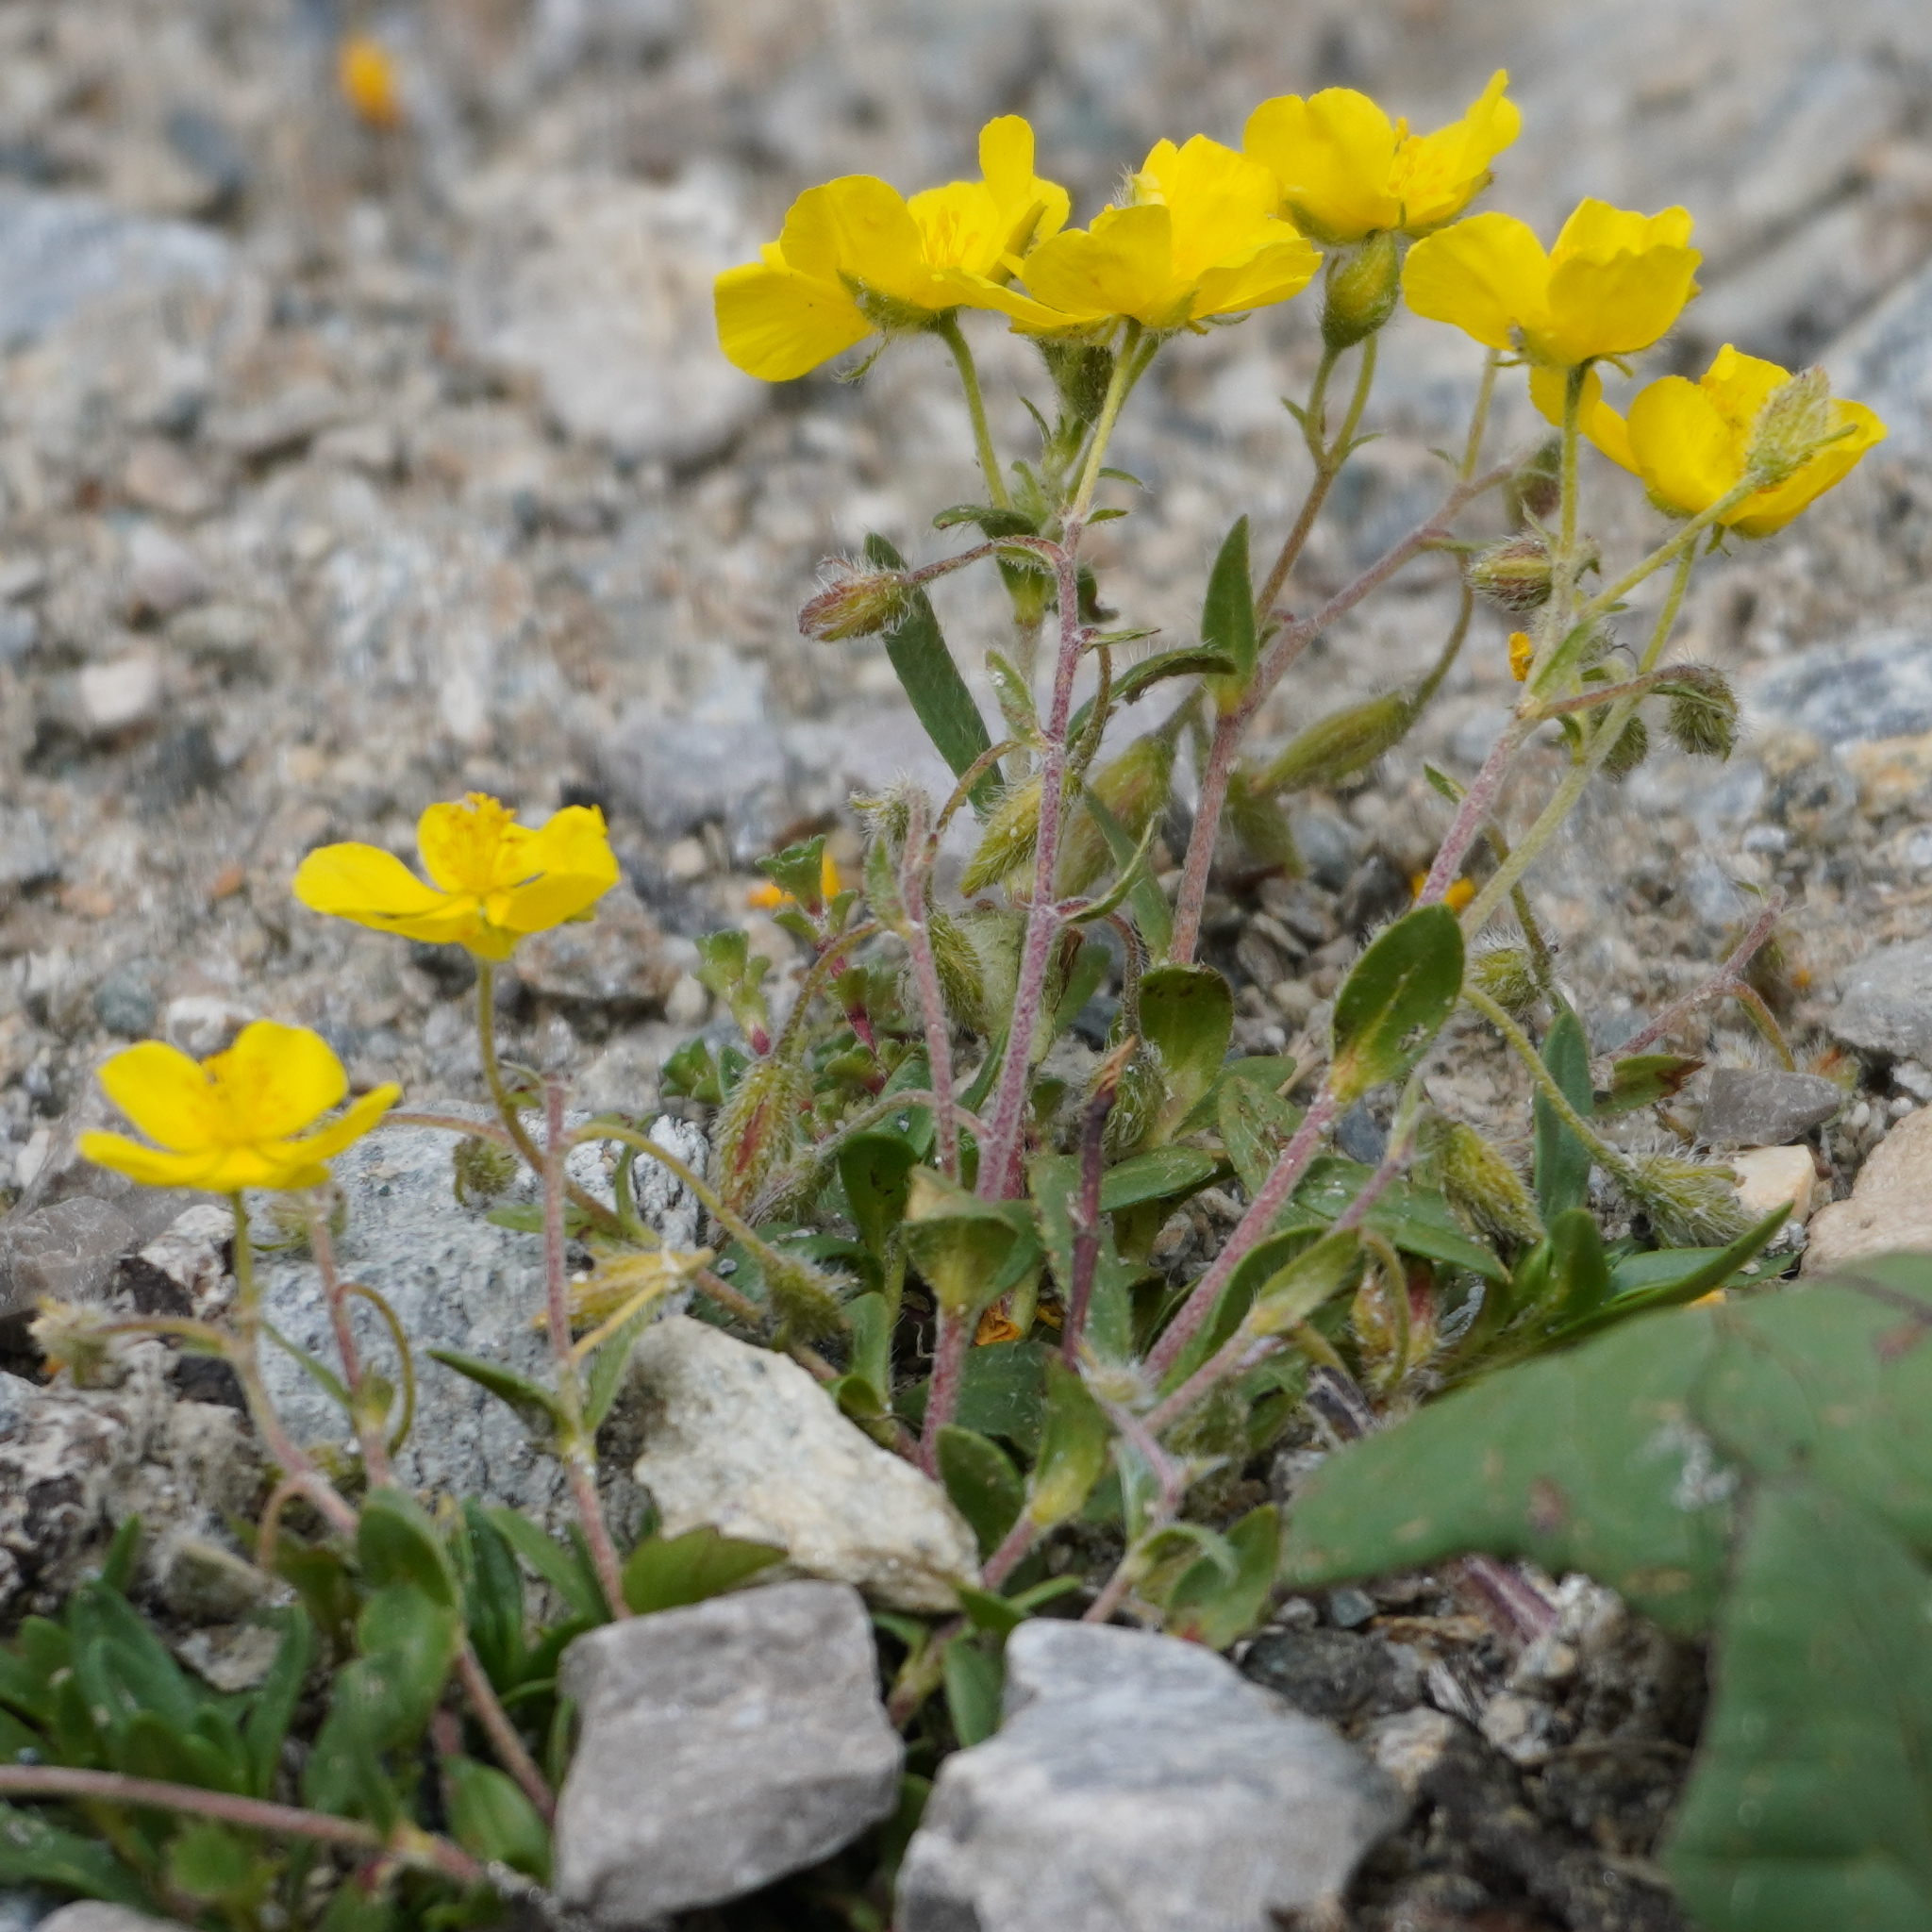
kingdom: Plantae
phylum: Tracheophyta
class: Magnoliopsida
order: Malvales
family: Cistaceae
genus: Helianthemum
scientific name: Helianthemum alpestre
